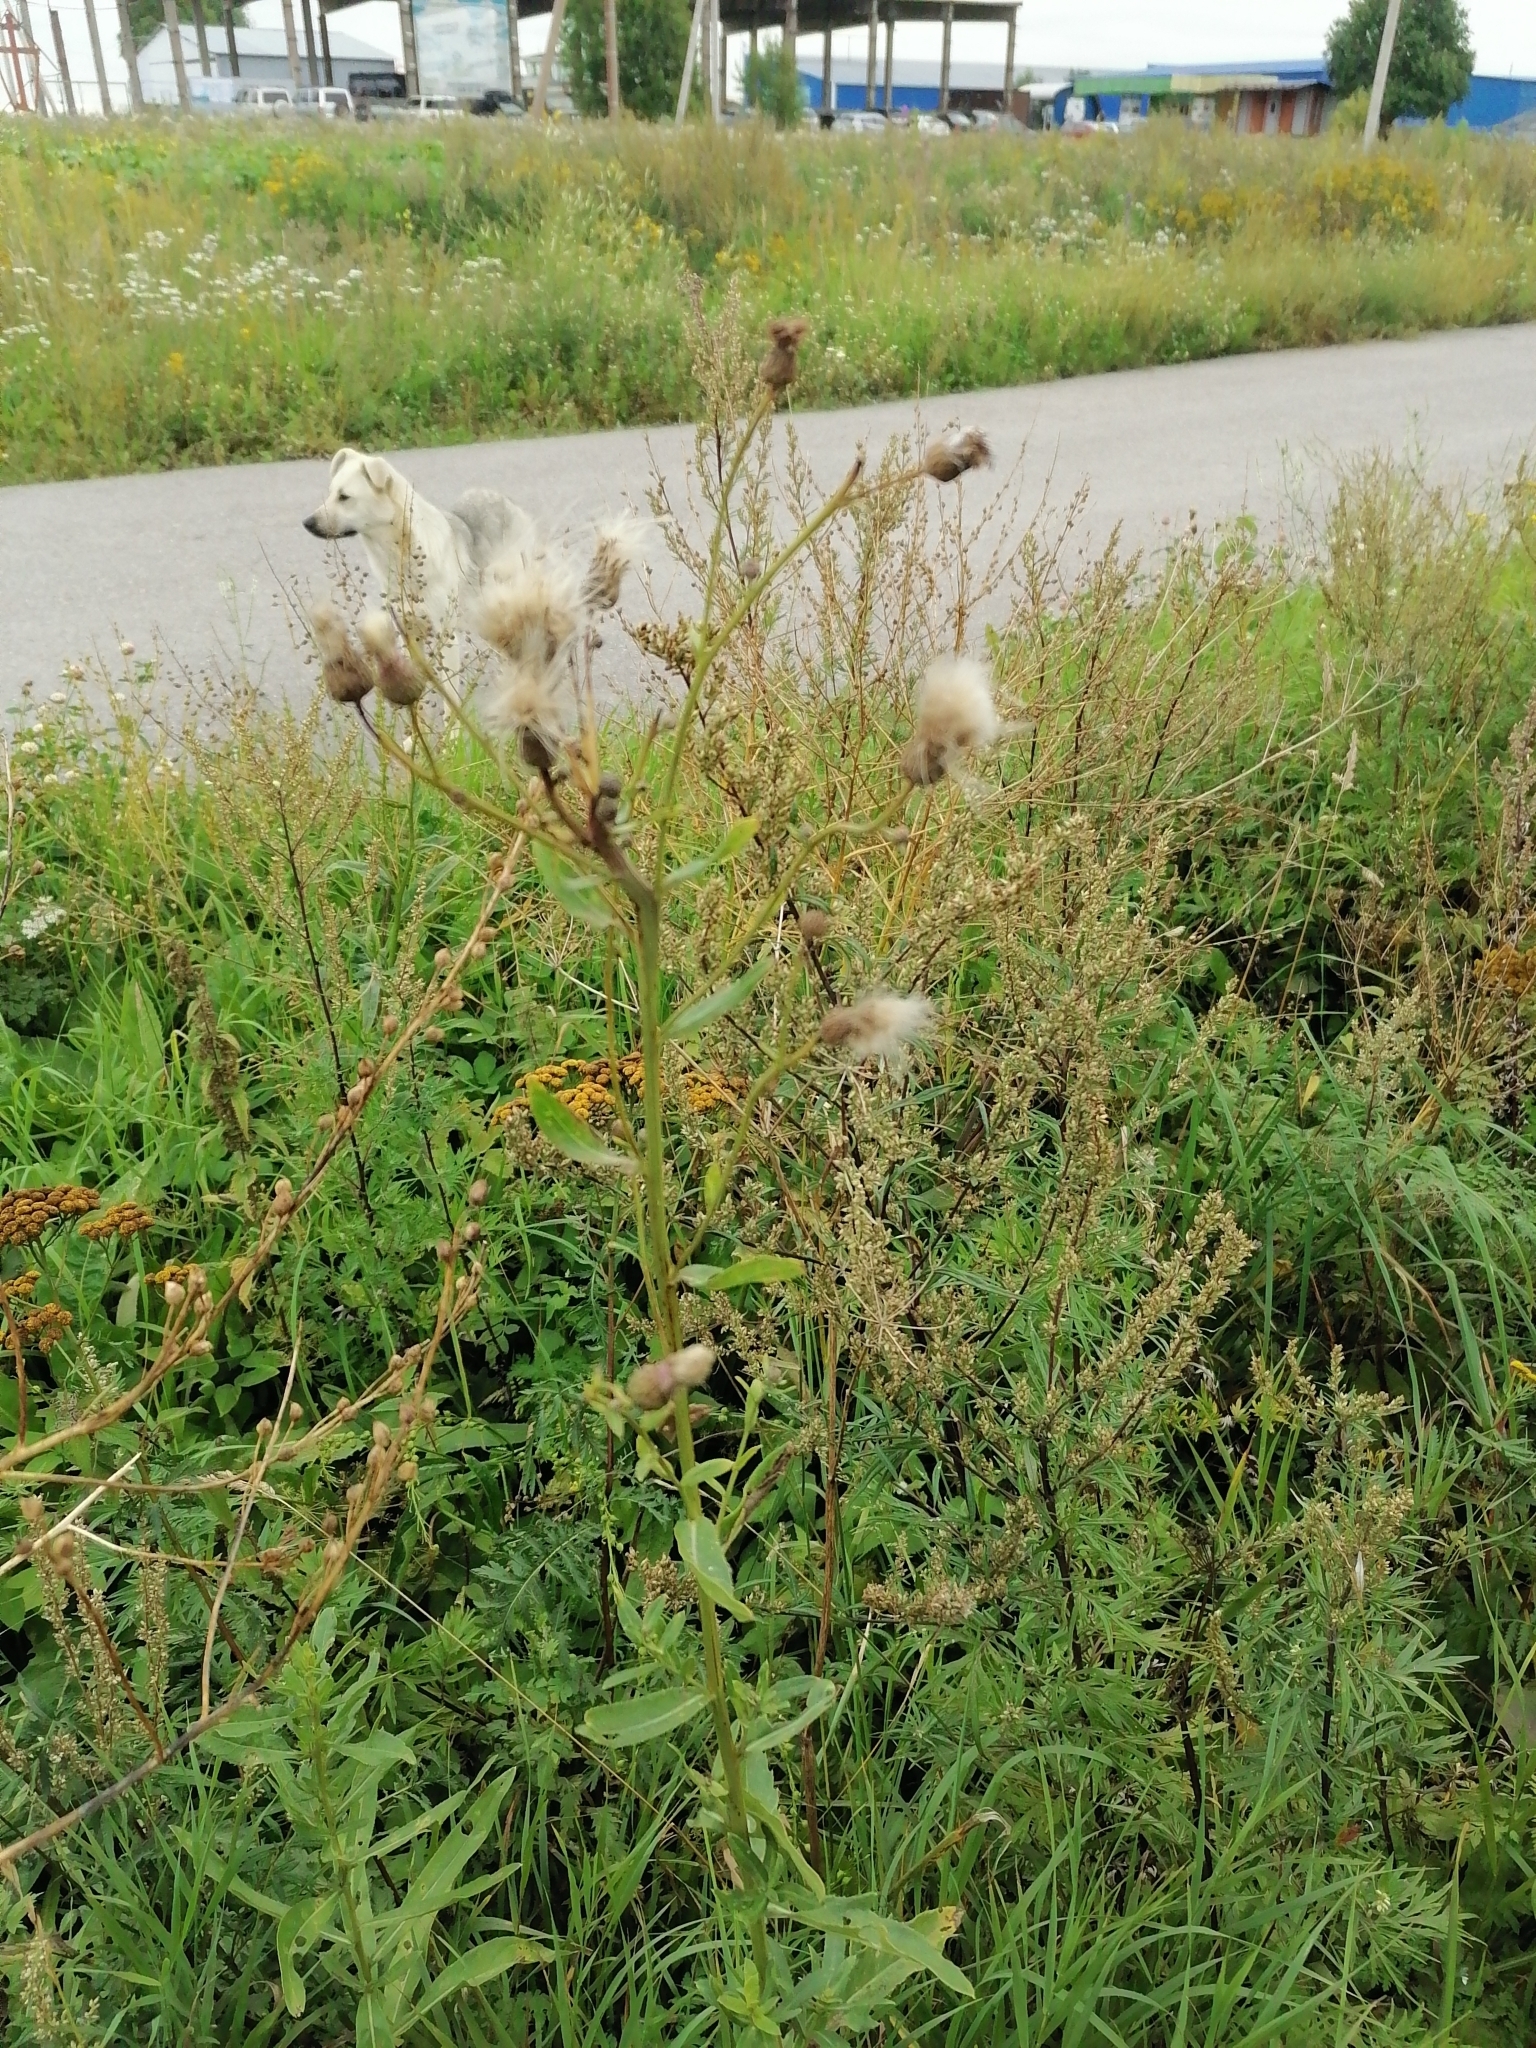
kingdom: Plantae
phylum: Tracheophyta
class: Magnoliopsida
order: Asterales
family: Asteraceae
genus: Cirsium
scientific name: Cirsium arvense
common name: Creeping thistle
